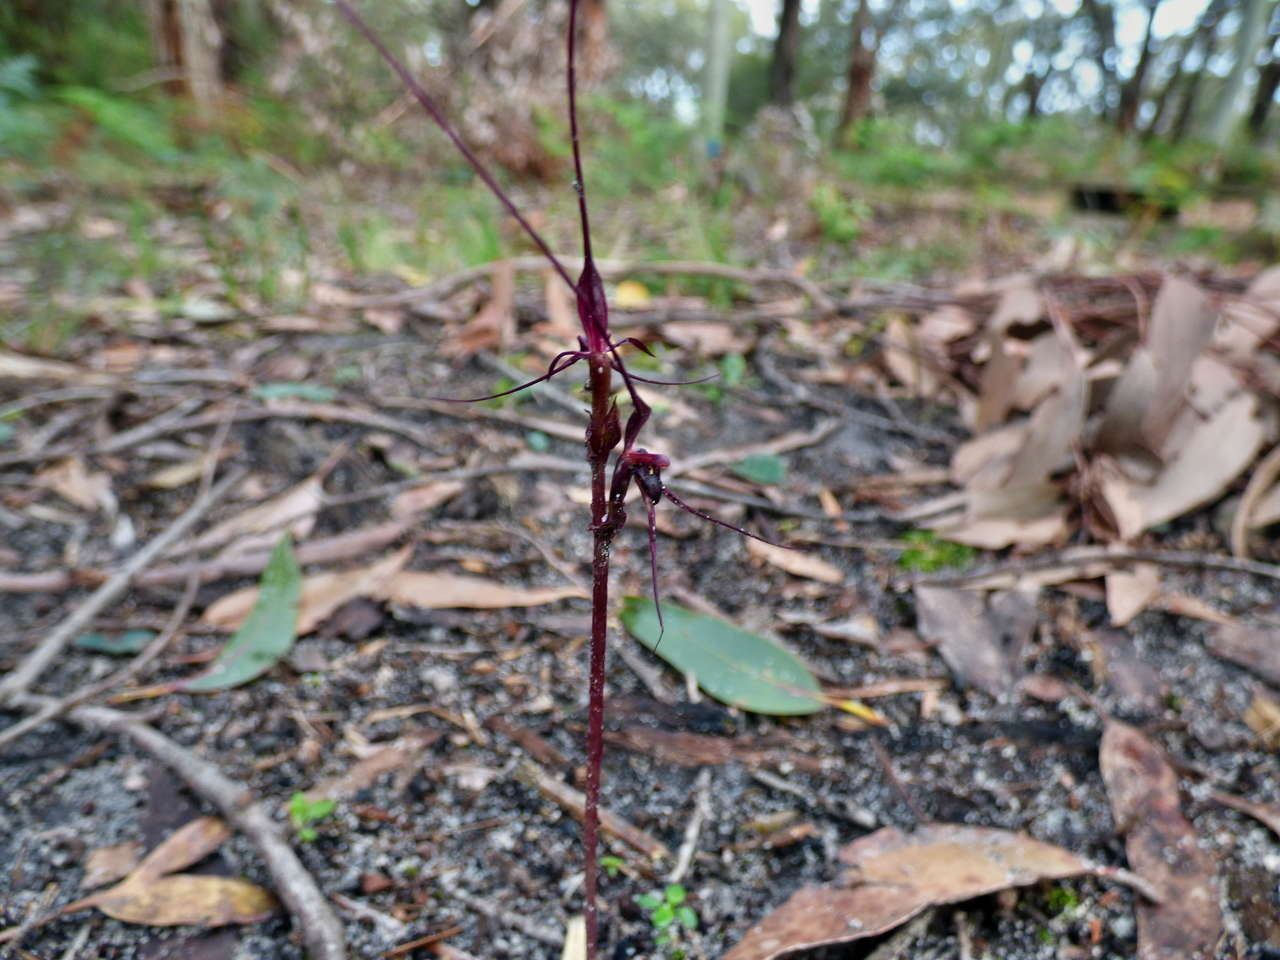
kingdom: Plantae
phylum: Tracheophyta
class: Liliopsida
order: Asparagales
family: Orchidaceae
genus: Acianthus
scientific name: Acianthus caudatus
